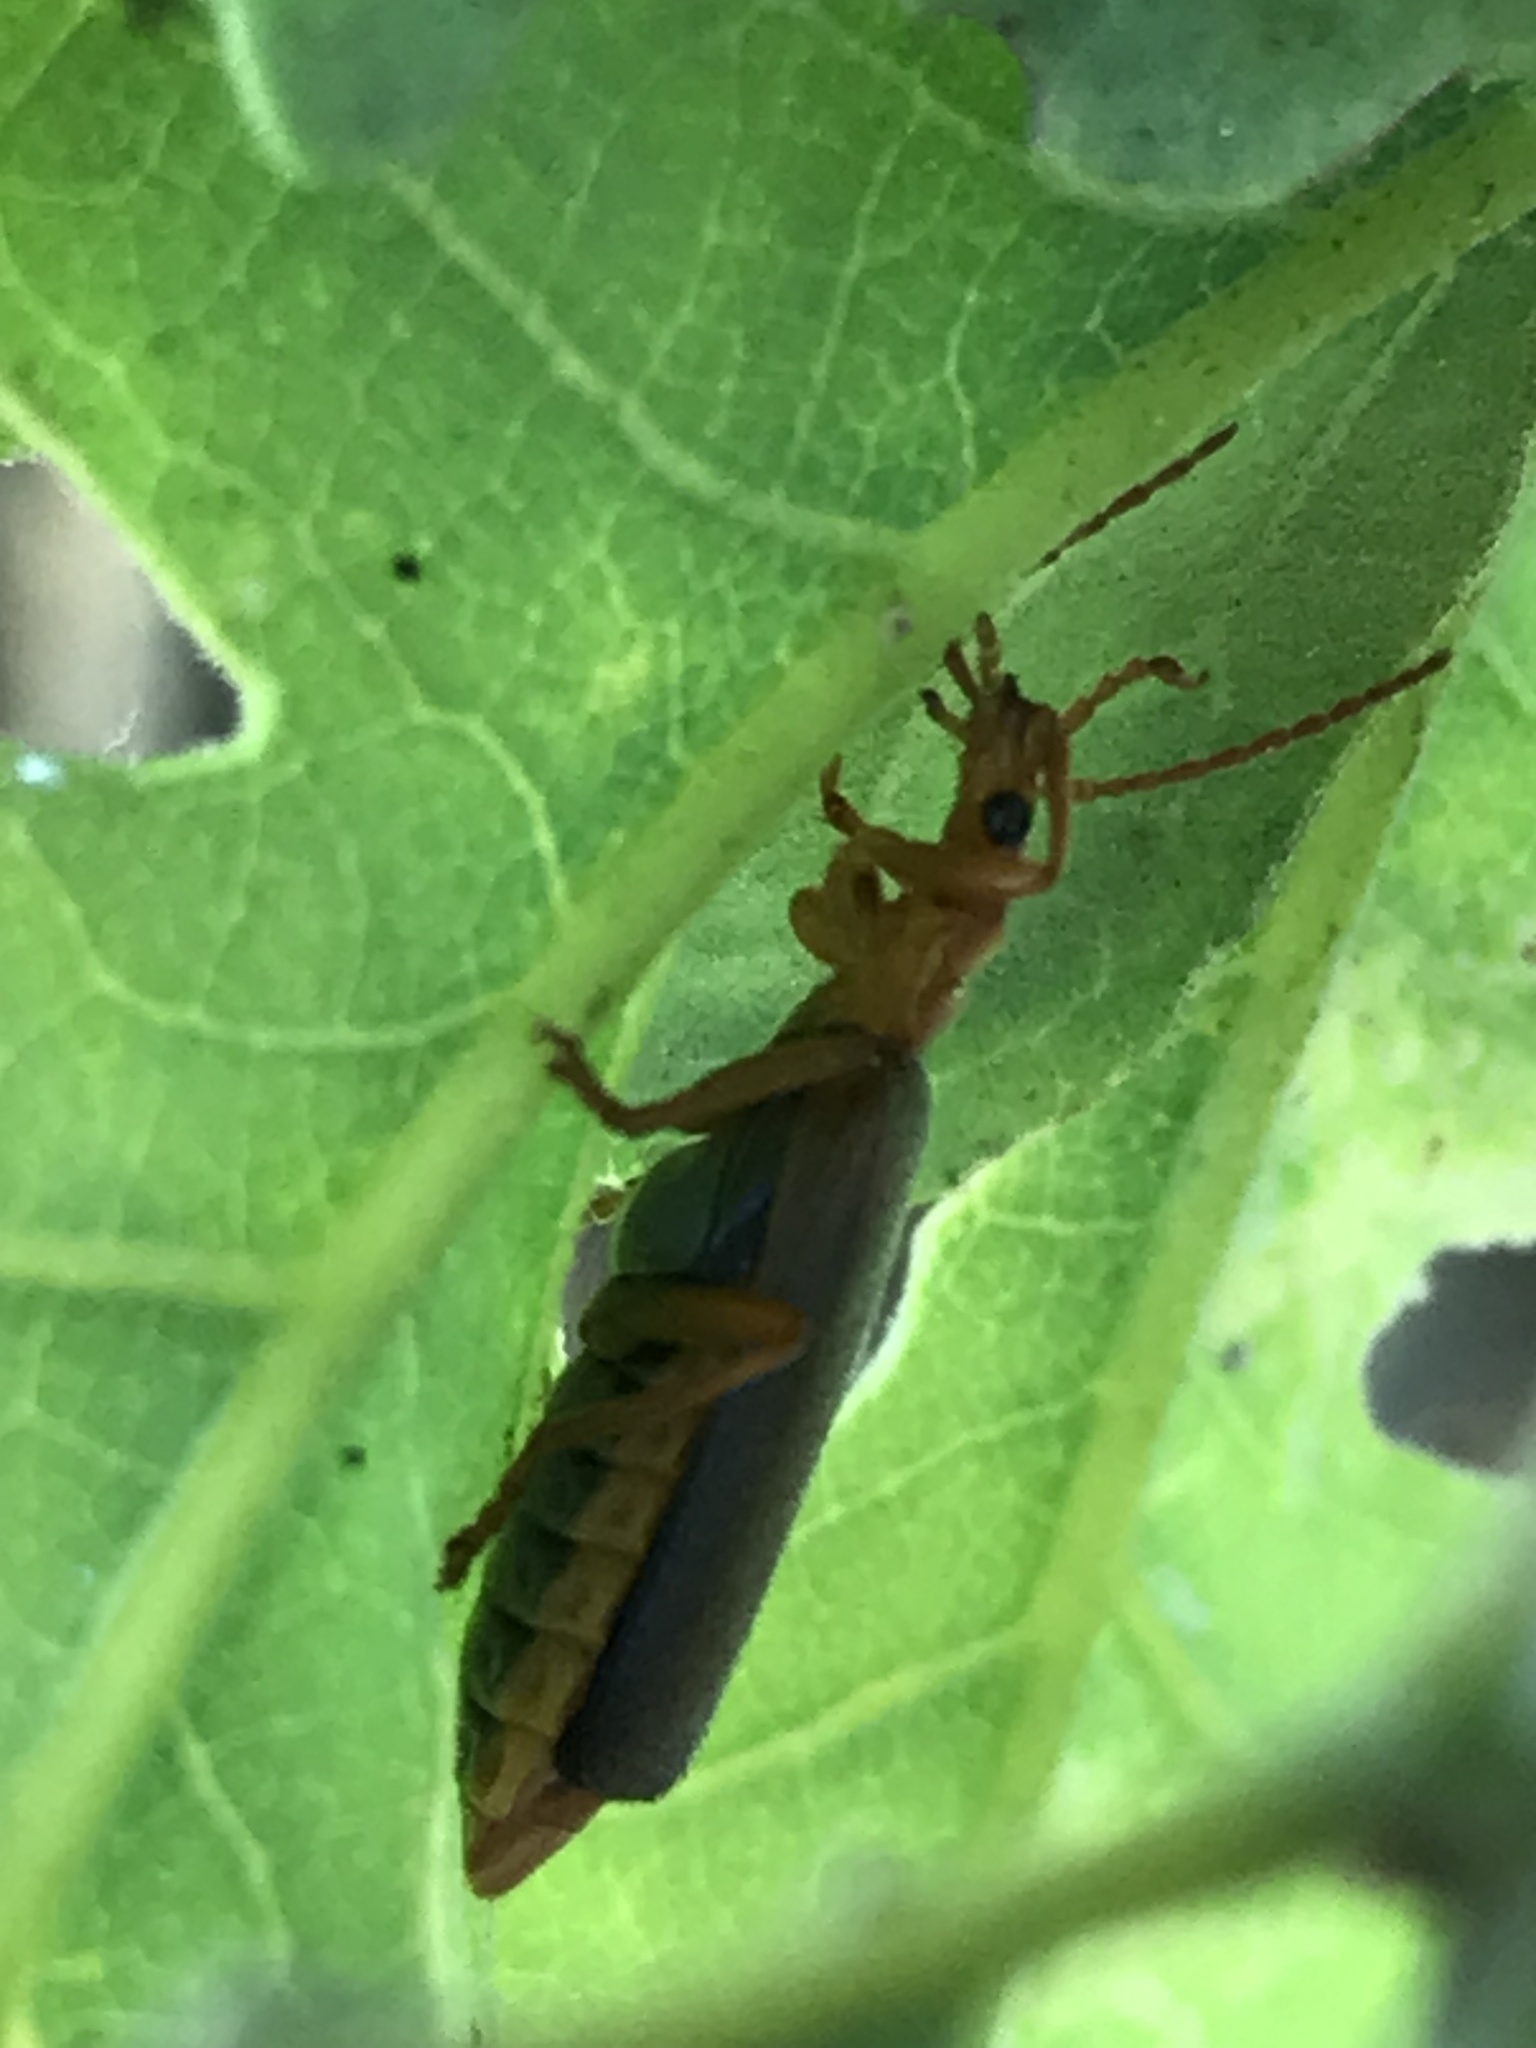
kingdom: Animalia
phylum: Arthropoda
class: Insecta
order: Coleoptera
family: Cantharidae
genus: Podabrus
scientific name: Podabrus pruinosus
